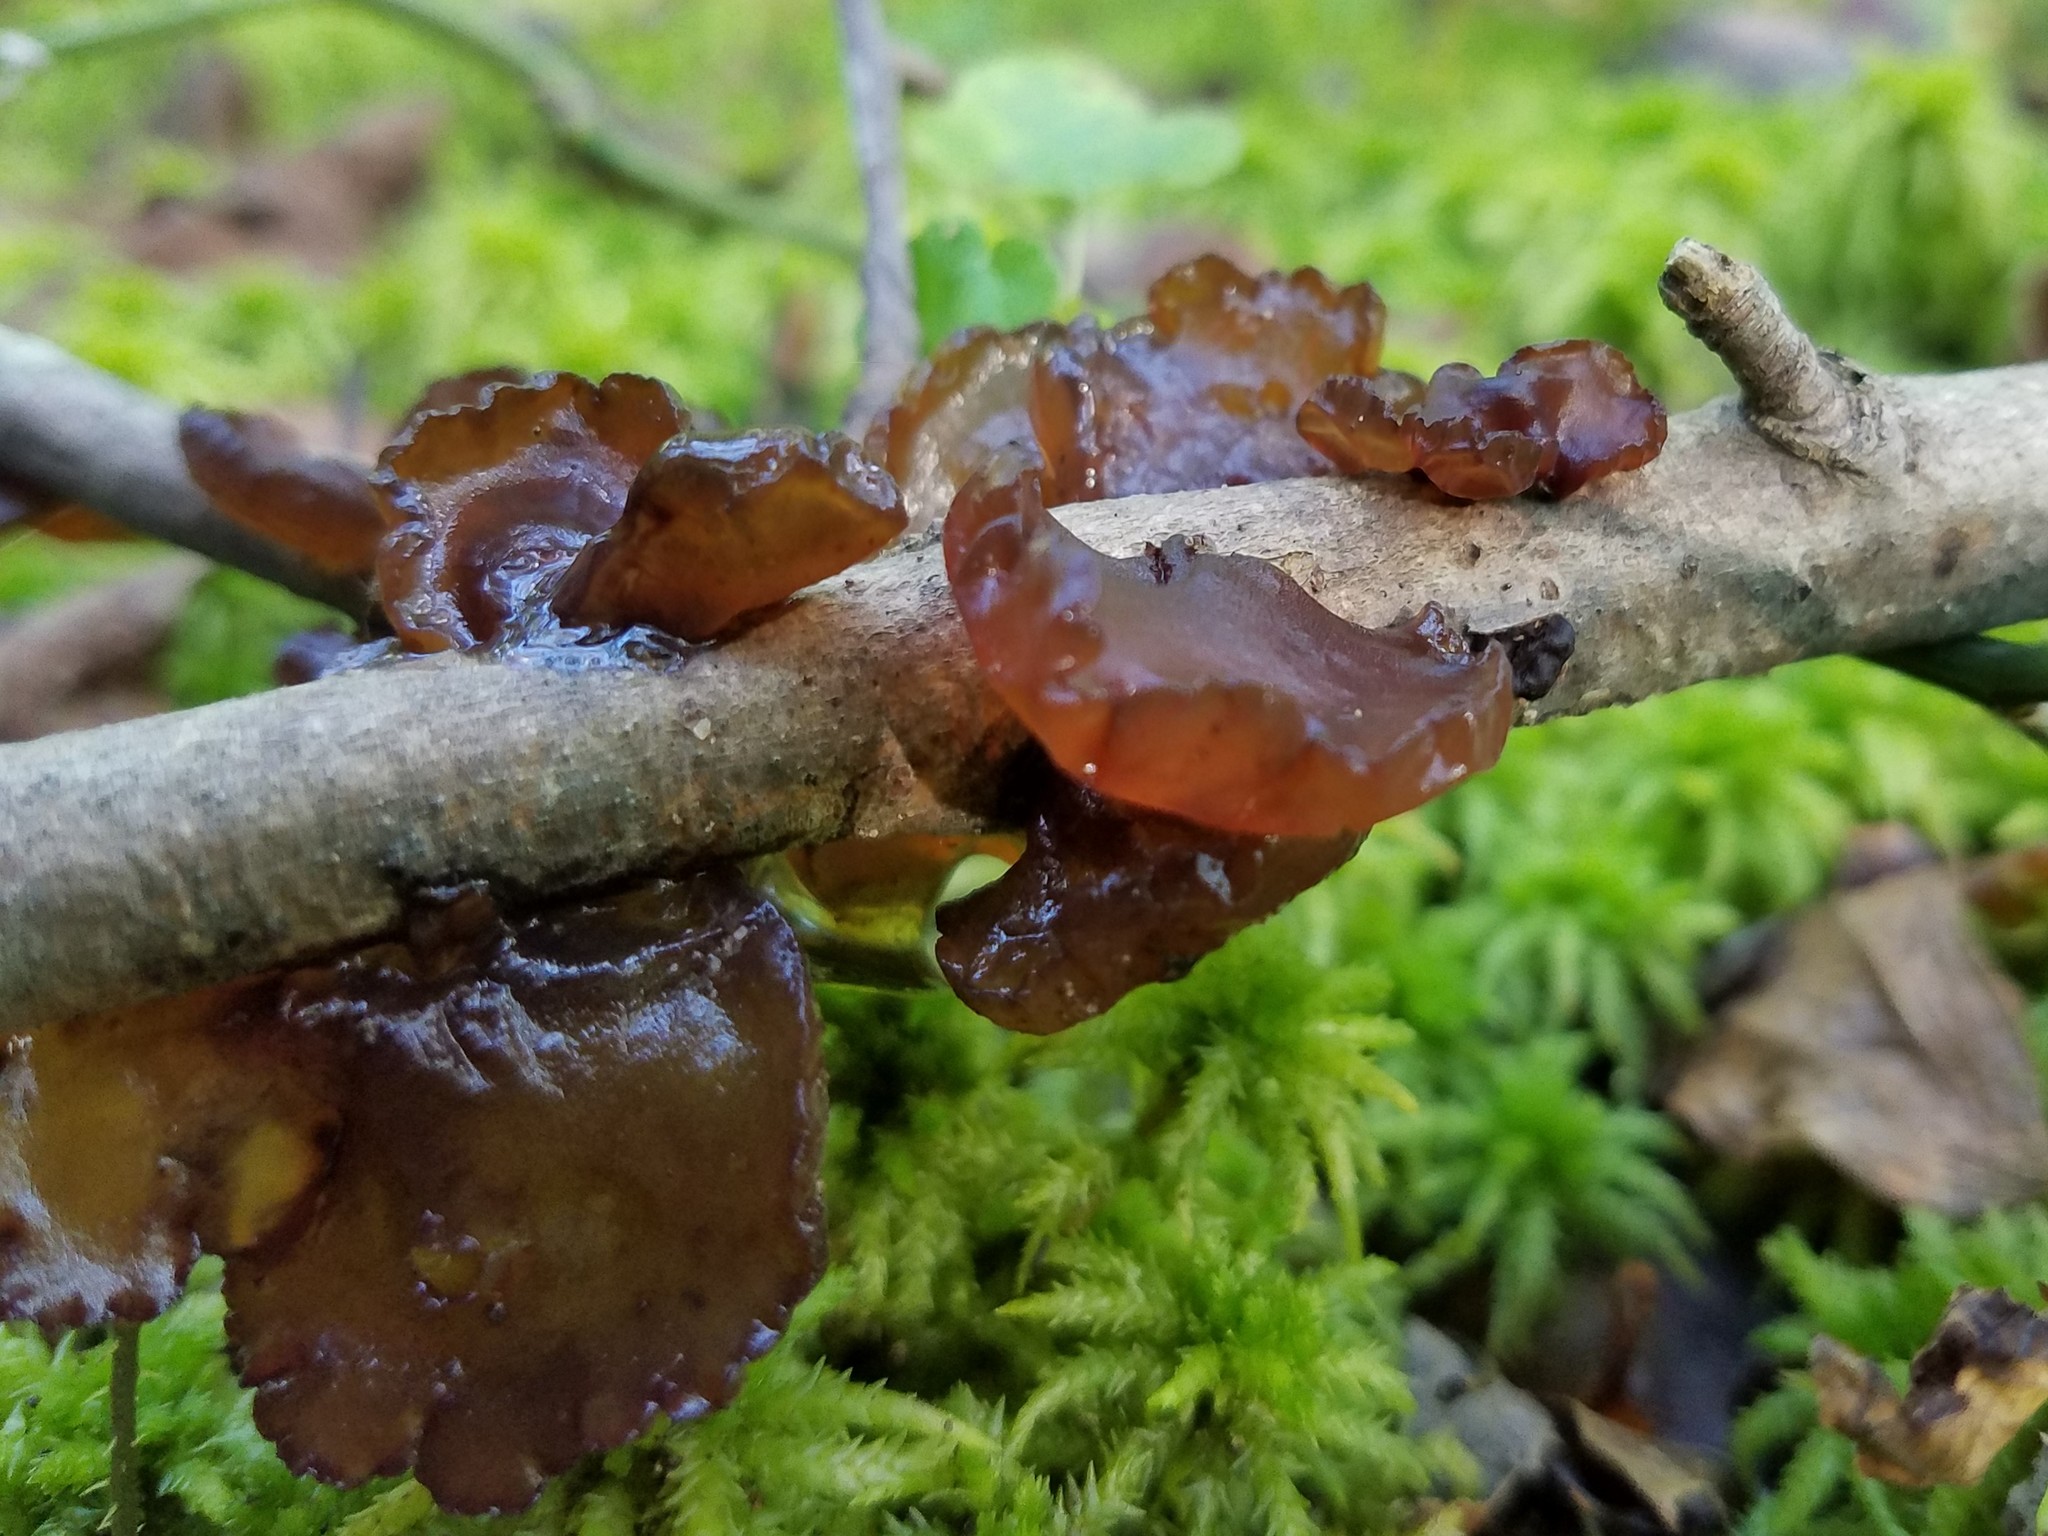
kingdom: Fungi
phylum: Basidiomycota
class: Agaricomycetes
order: Auriculariales
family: Auriculariaceae
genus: Exidia
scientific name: Exidia
